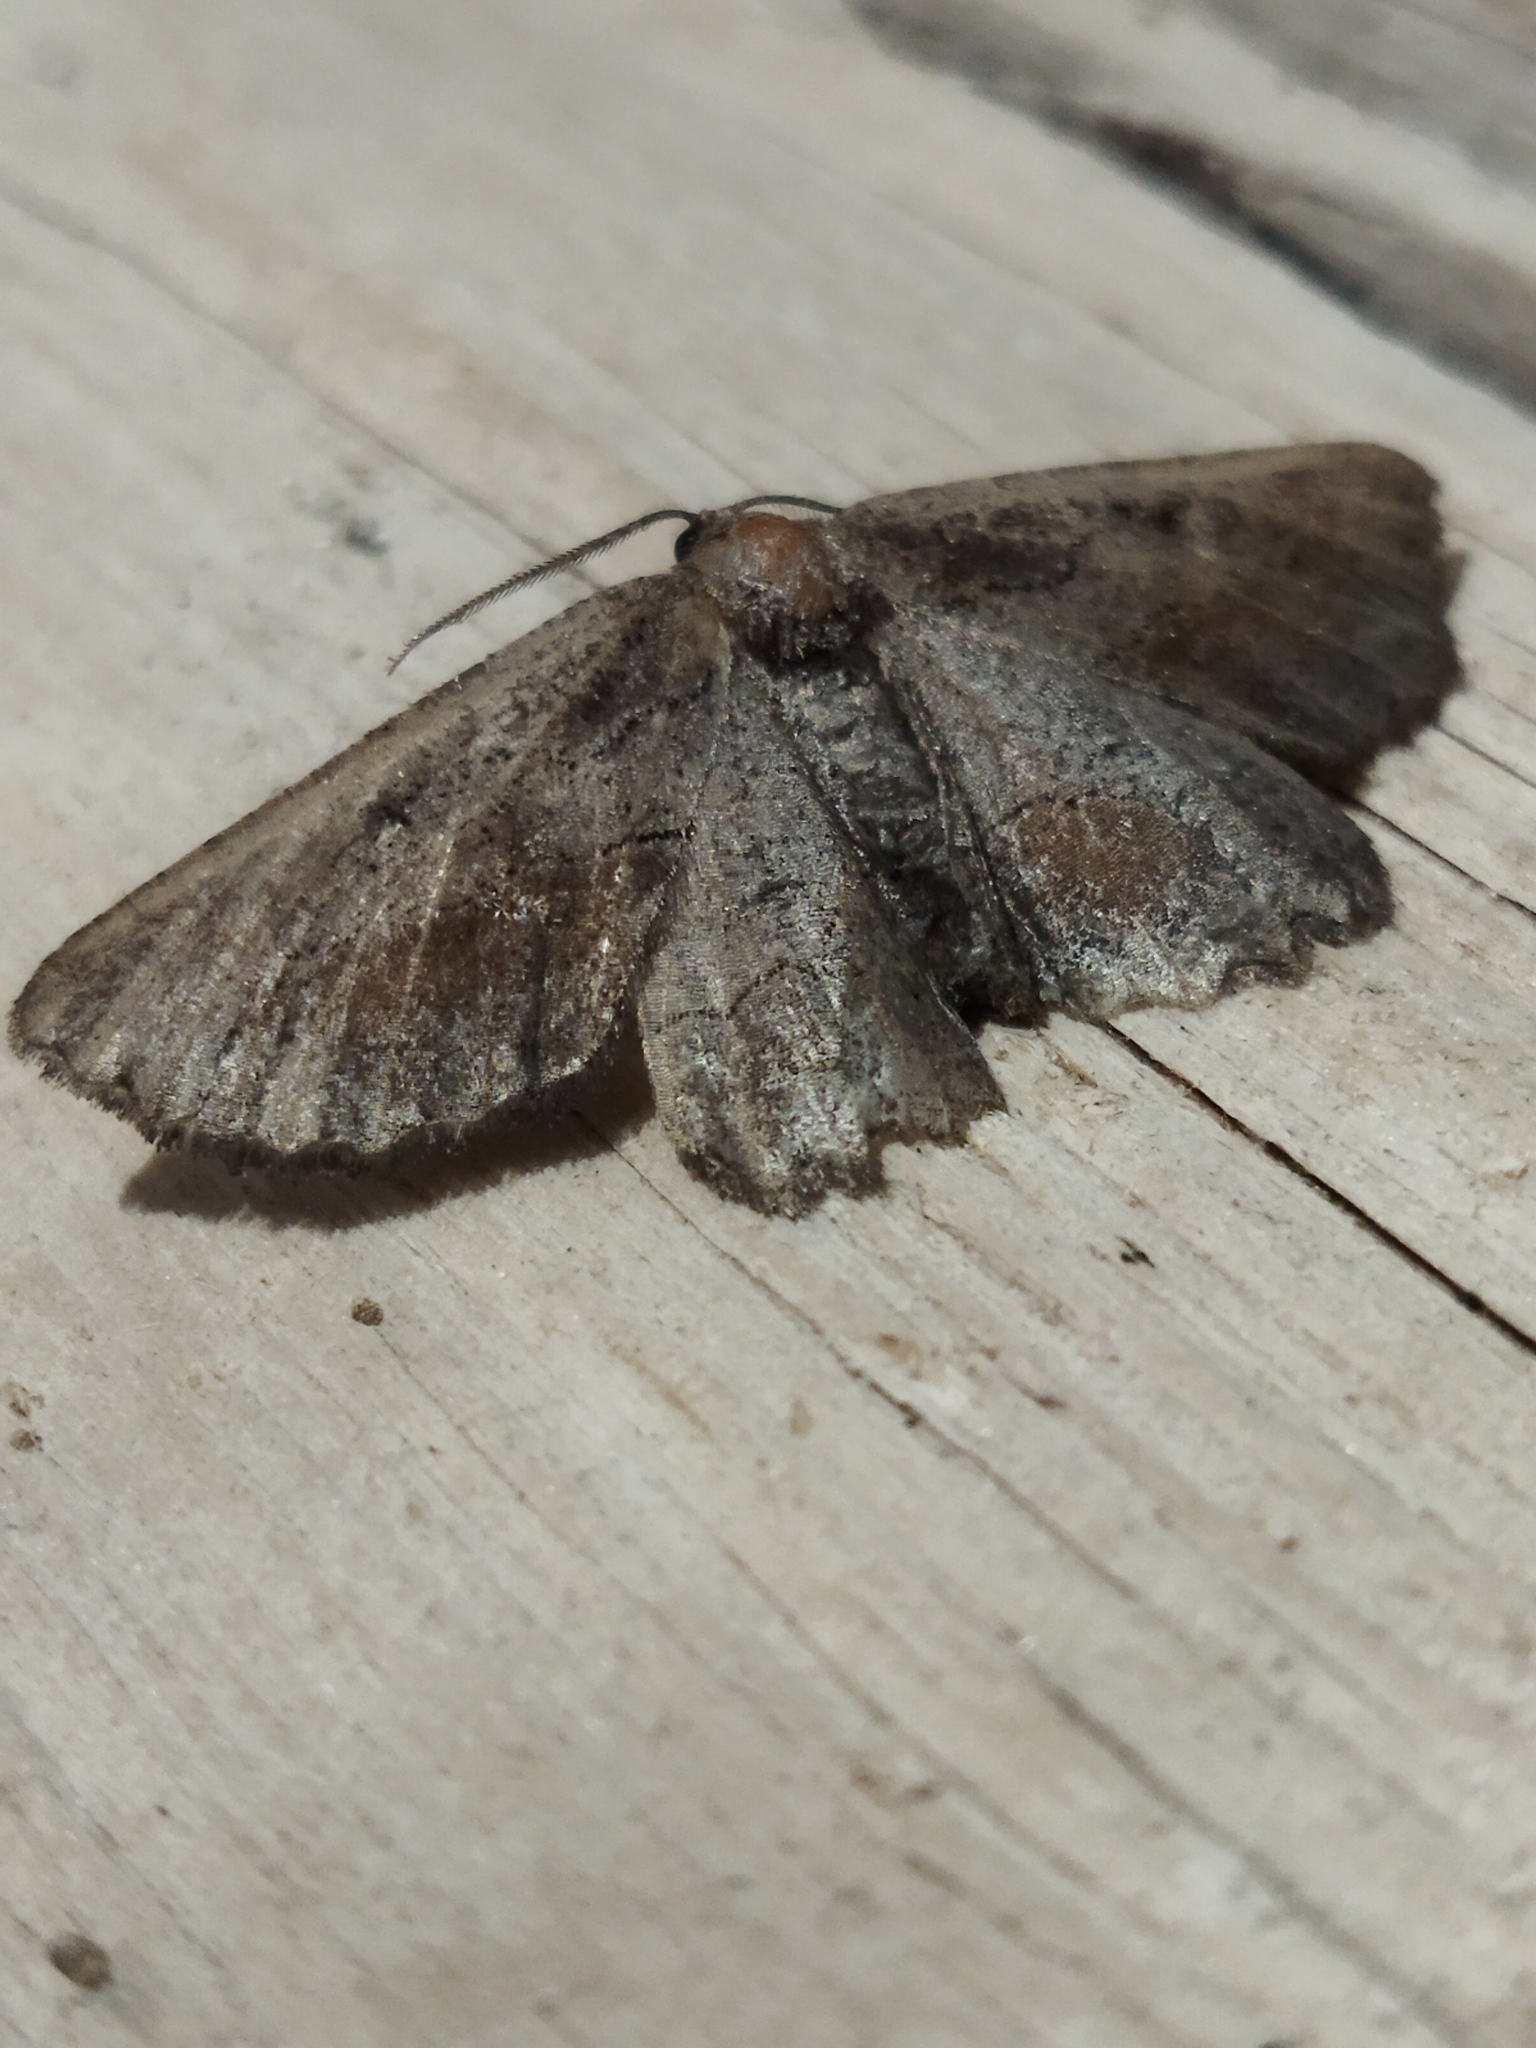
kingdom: Animalia
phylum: Arthropoda
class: Insecta
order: Lepidoptera
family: Geometridae
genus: Nychiodes
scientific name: Nychiodes waltheri
